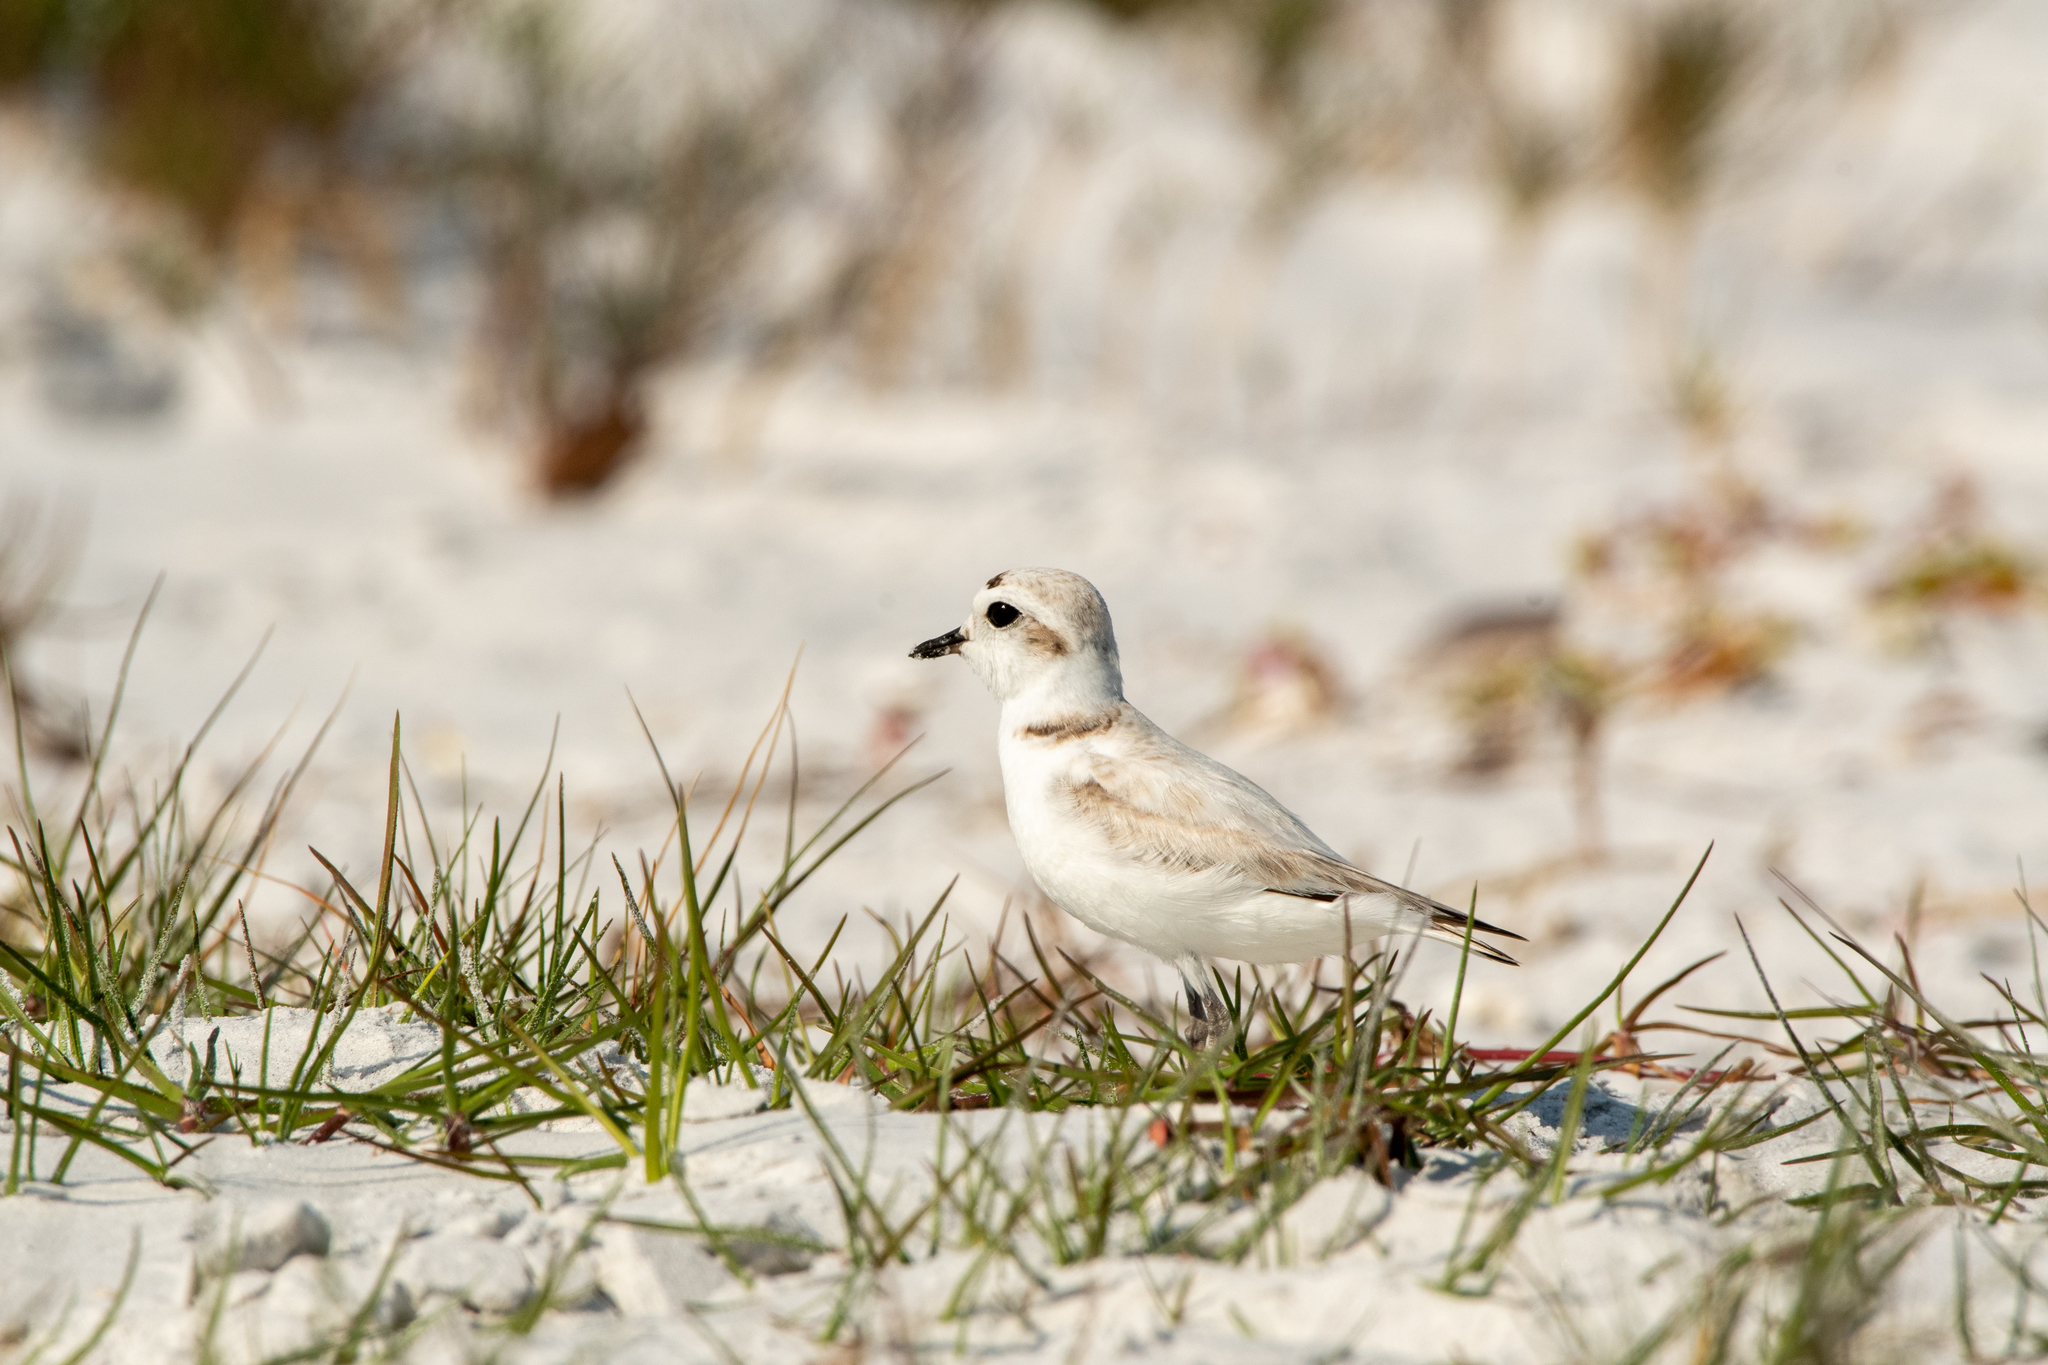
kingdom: Animalia
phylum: Chordata
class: Aves
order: Charadriiformes
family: Charadriidae
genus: Anarhynchus
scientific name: Anarhynchus
